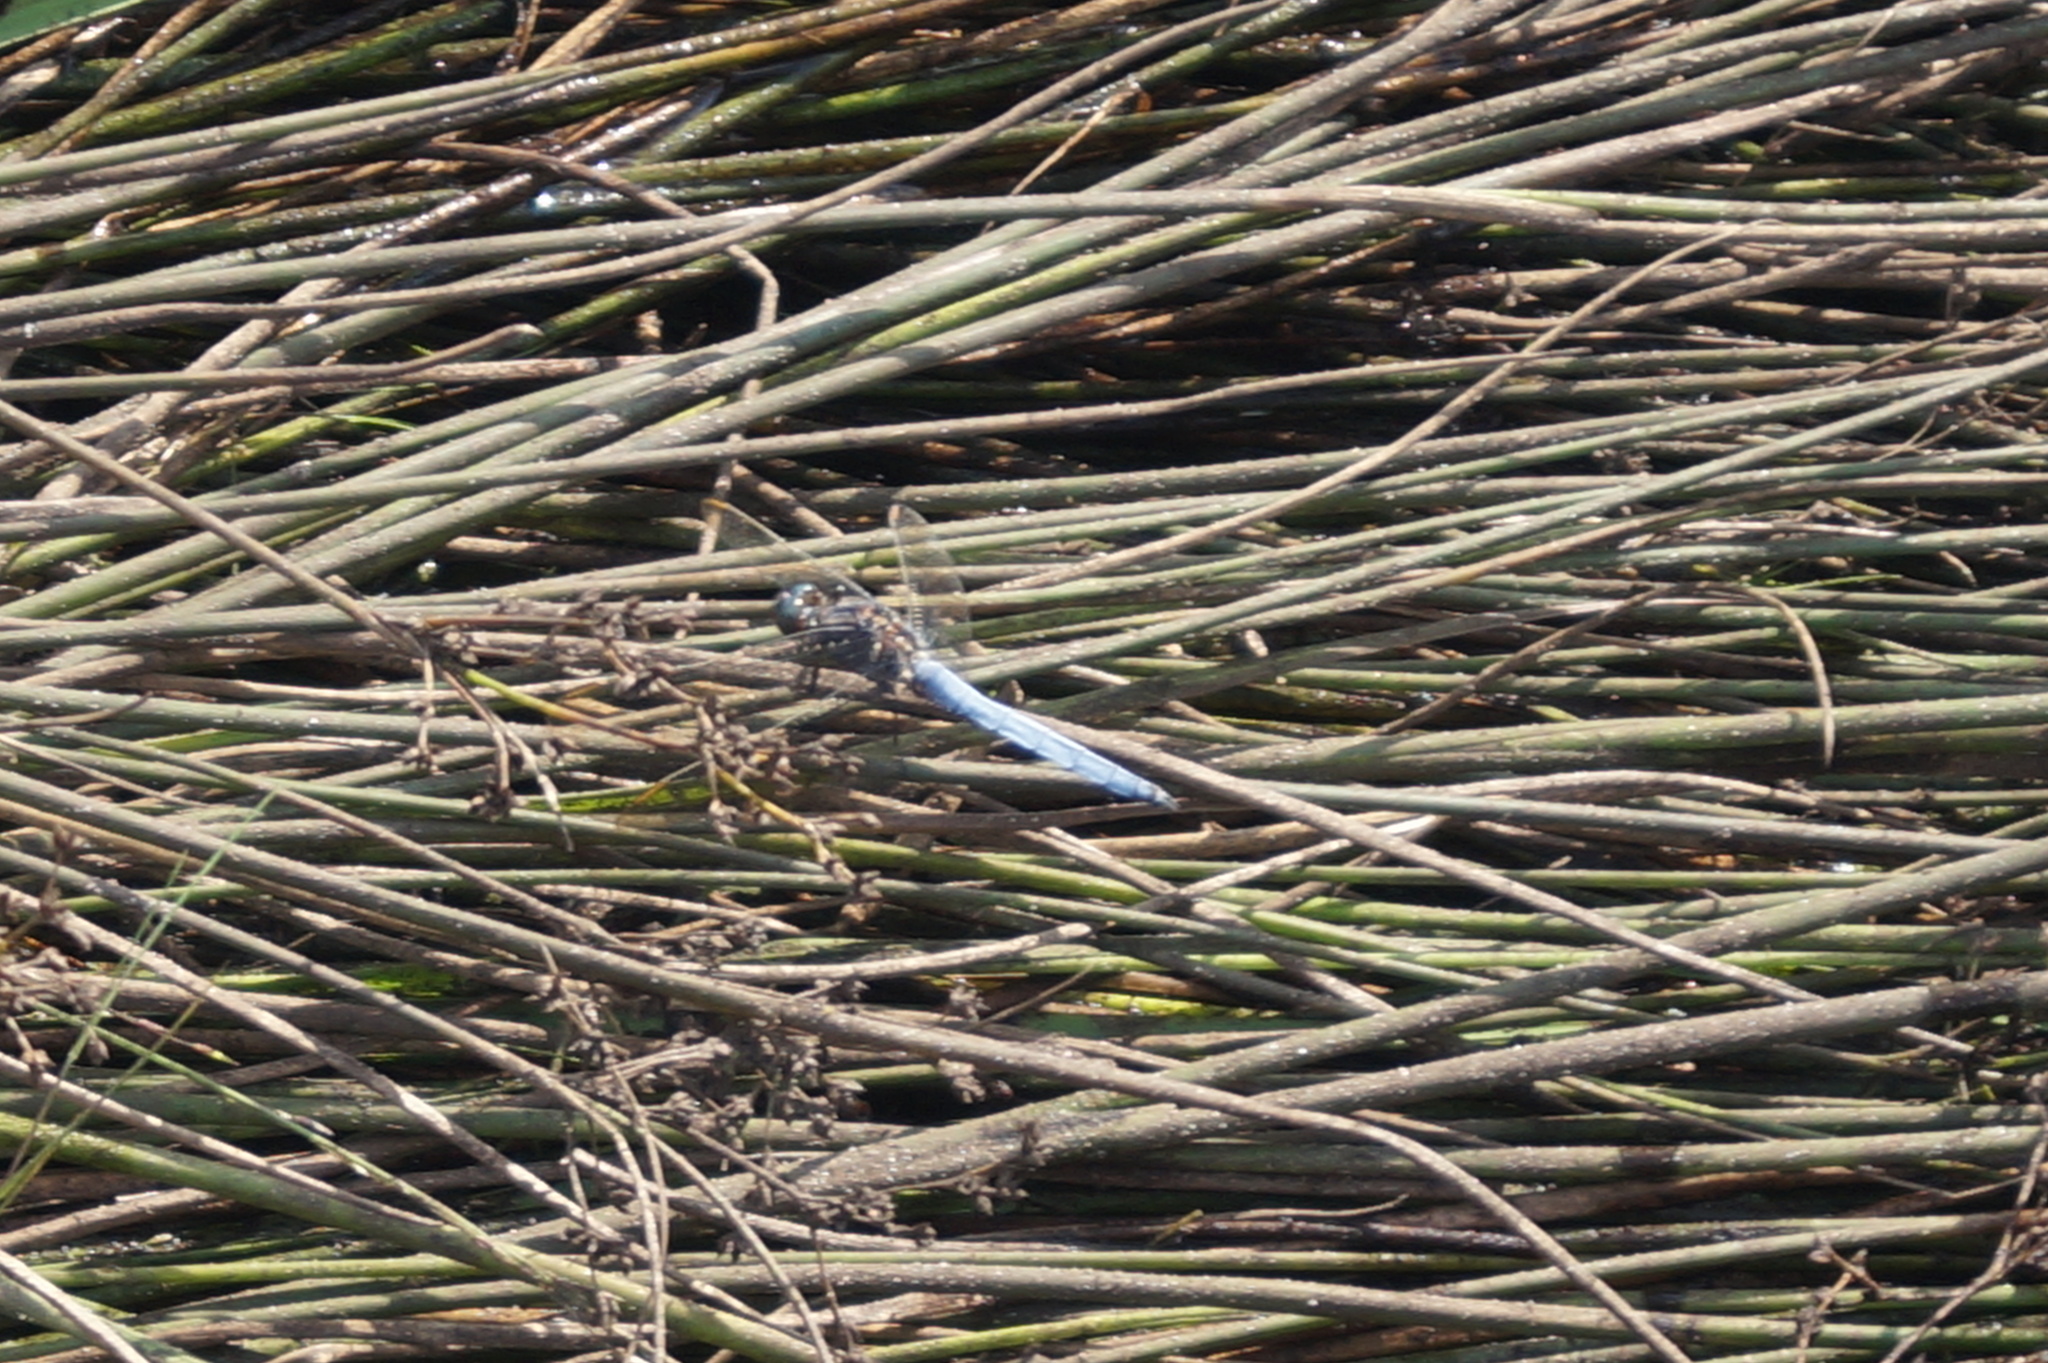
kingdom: Animalia
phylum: Arthropoda
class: Insecta
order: Odonata
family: Libellulidae
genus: Orthetrum
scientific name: Orthetrum coerulescens
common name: Keeled skimmer
